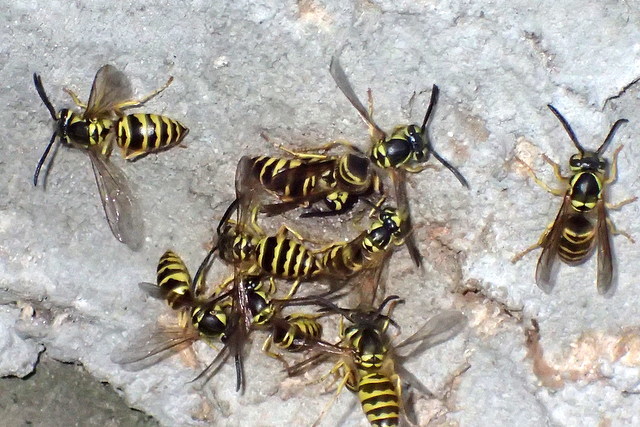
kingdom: Animalia
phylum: Arthropoda
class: Insecta
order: Hymenoptera
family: Vespidae
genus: Vespula
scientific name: Vespula maculifrons
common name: Eastern yellowjacket
